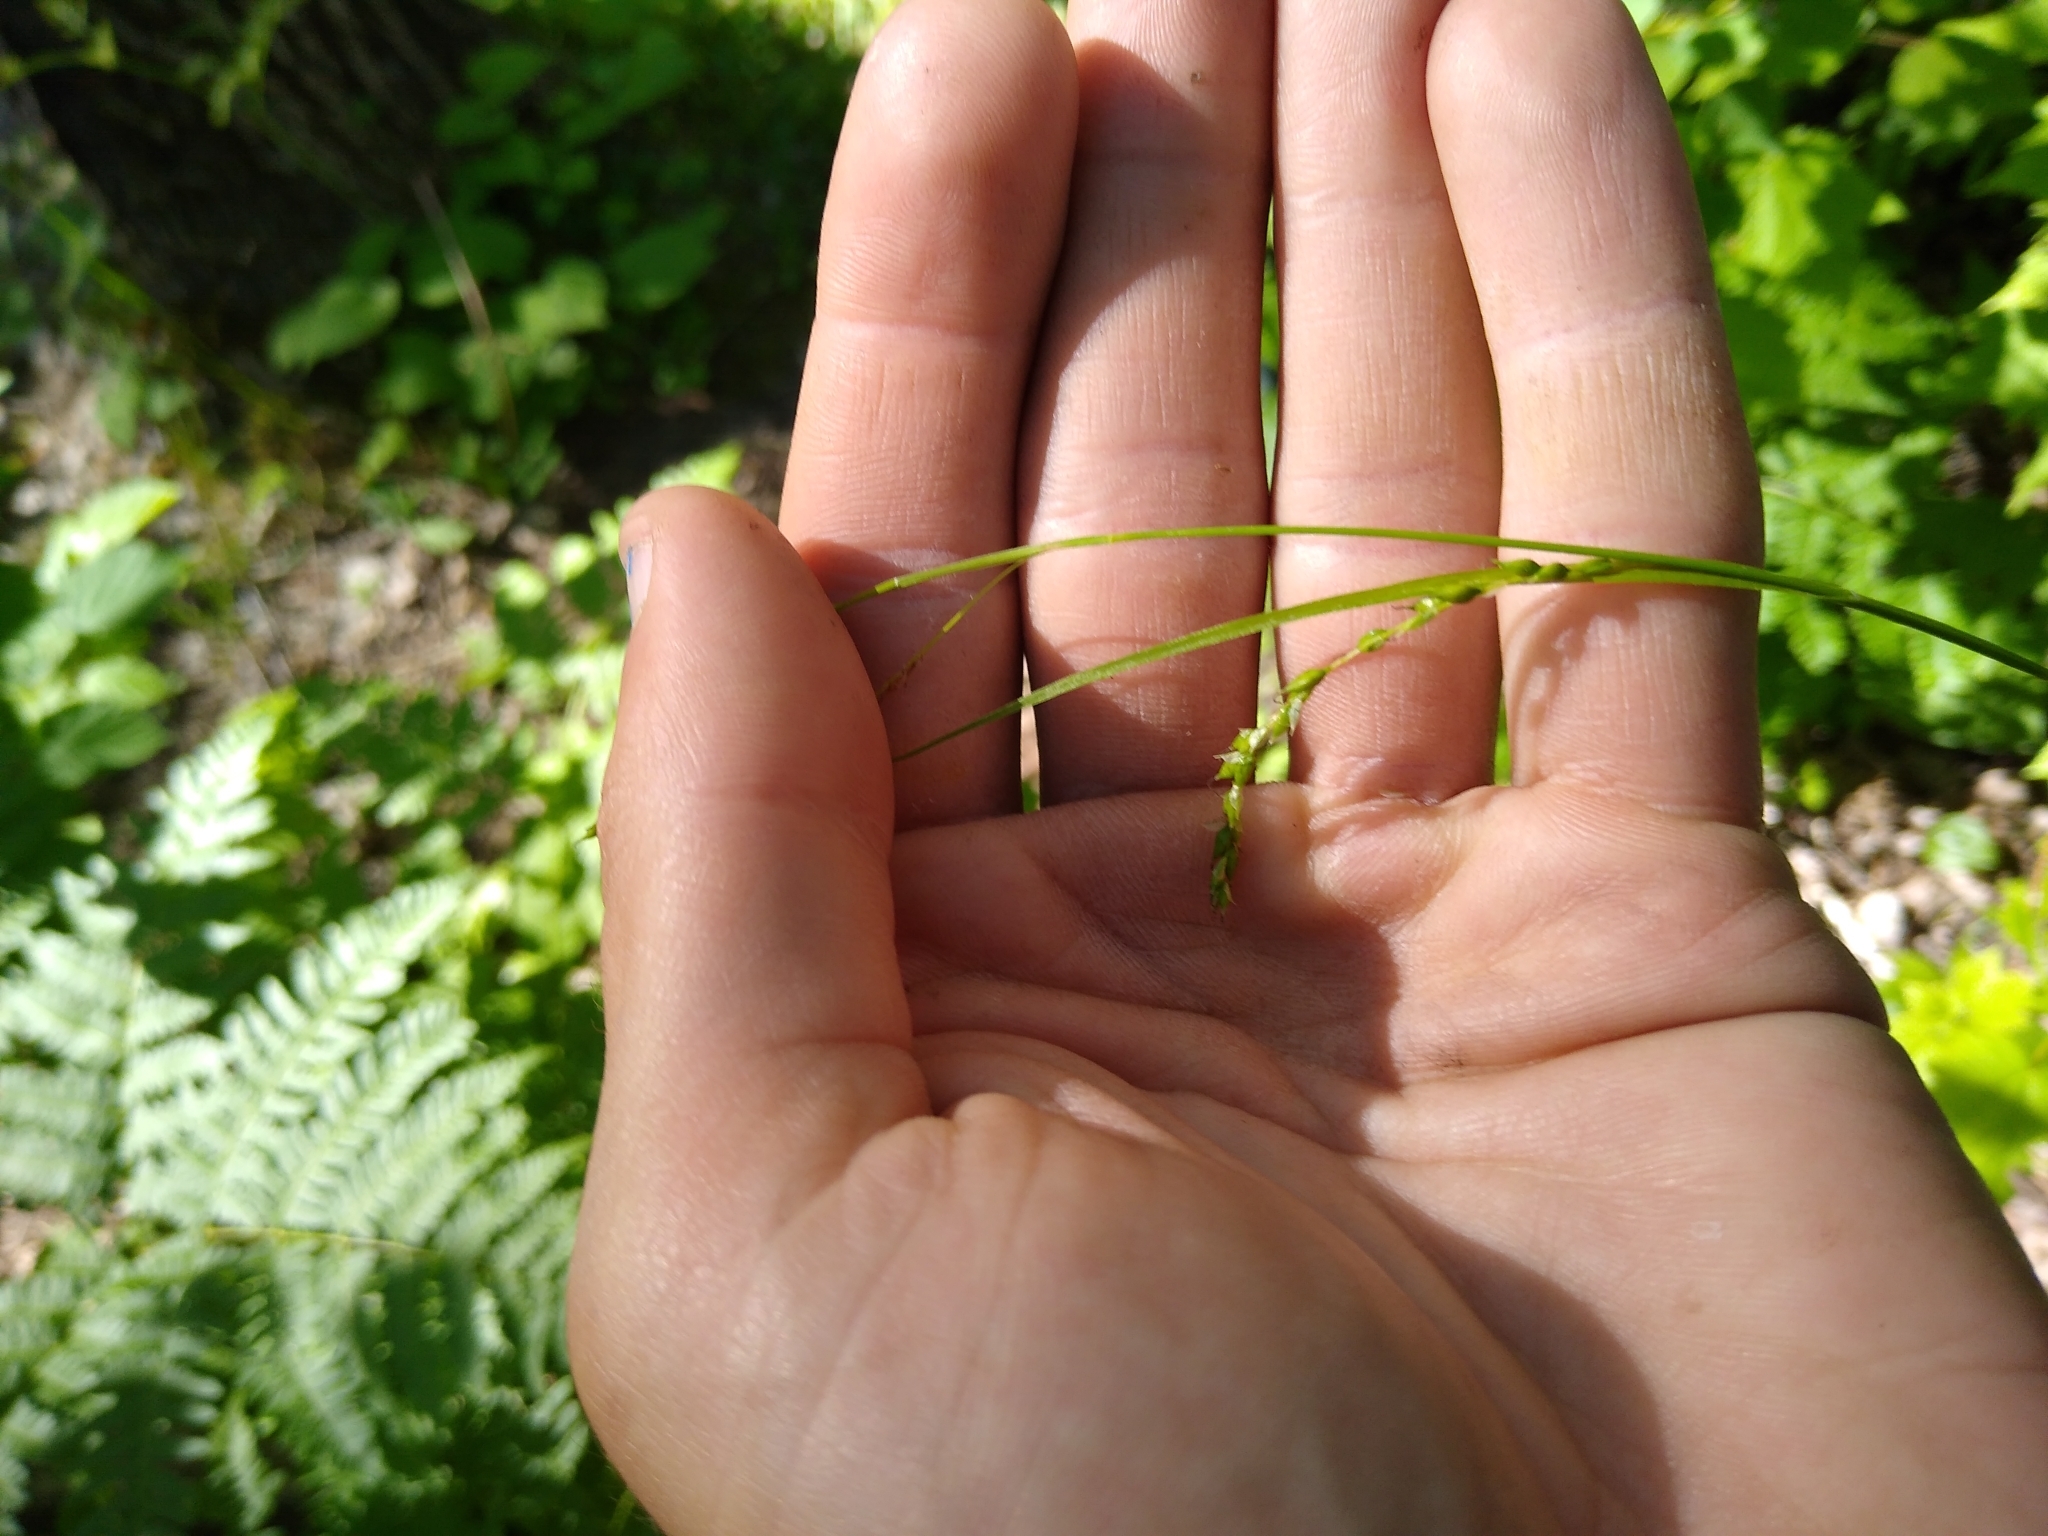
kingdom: Plantae
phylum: Tracheophyta
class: Liliopsida
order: Poales
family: Cyperaceae
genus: Carex
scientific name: Carex arctata
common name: Black sedge
